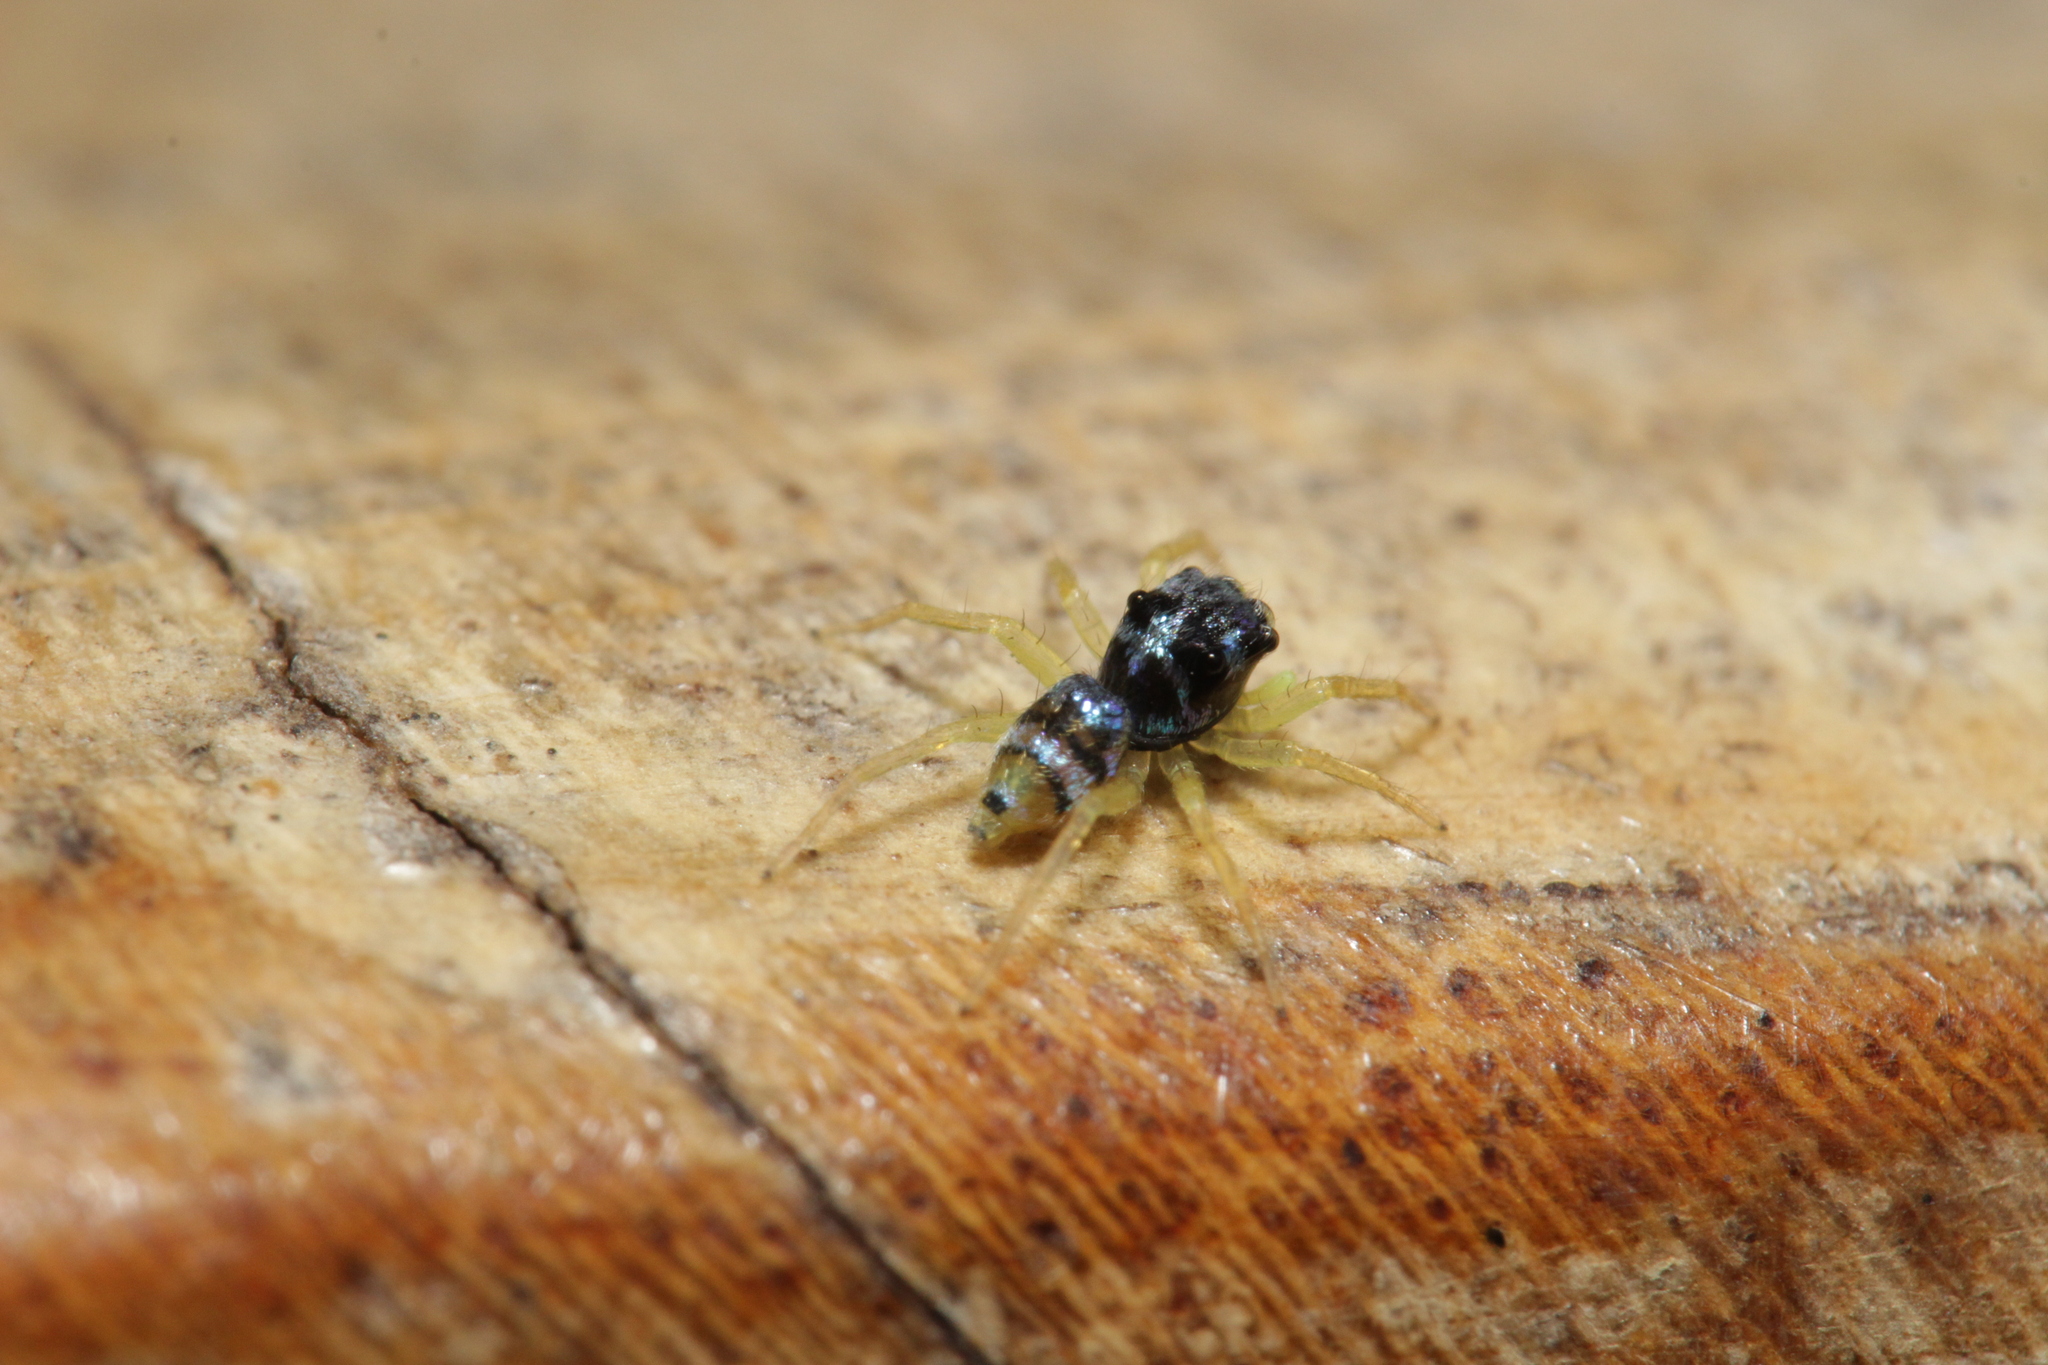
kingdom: Animalia
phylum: Arthropoda
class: Arachnida
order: Araneae
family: Salticidae
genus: Phintella
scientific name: Phintella vittata
